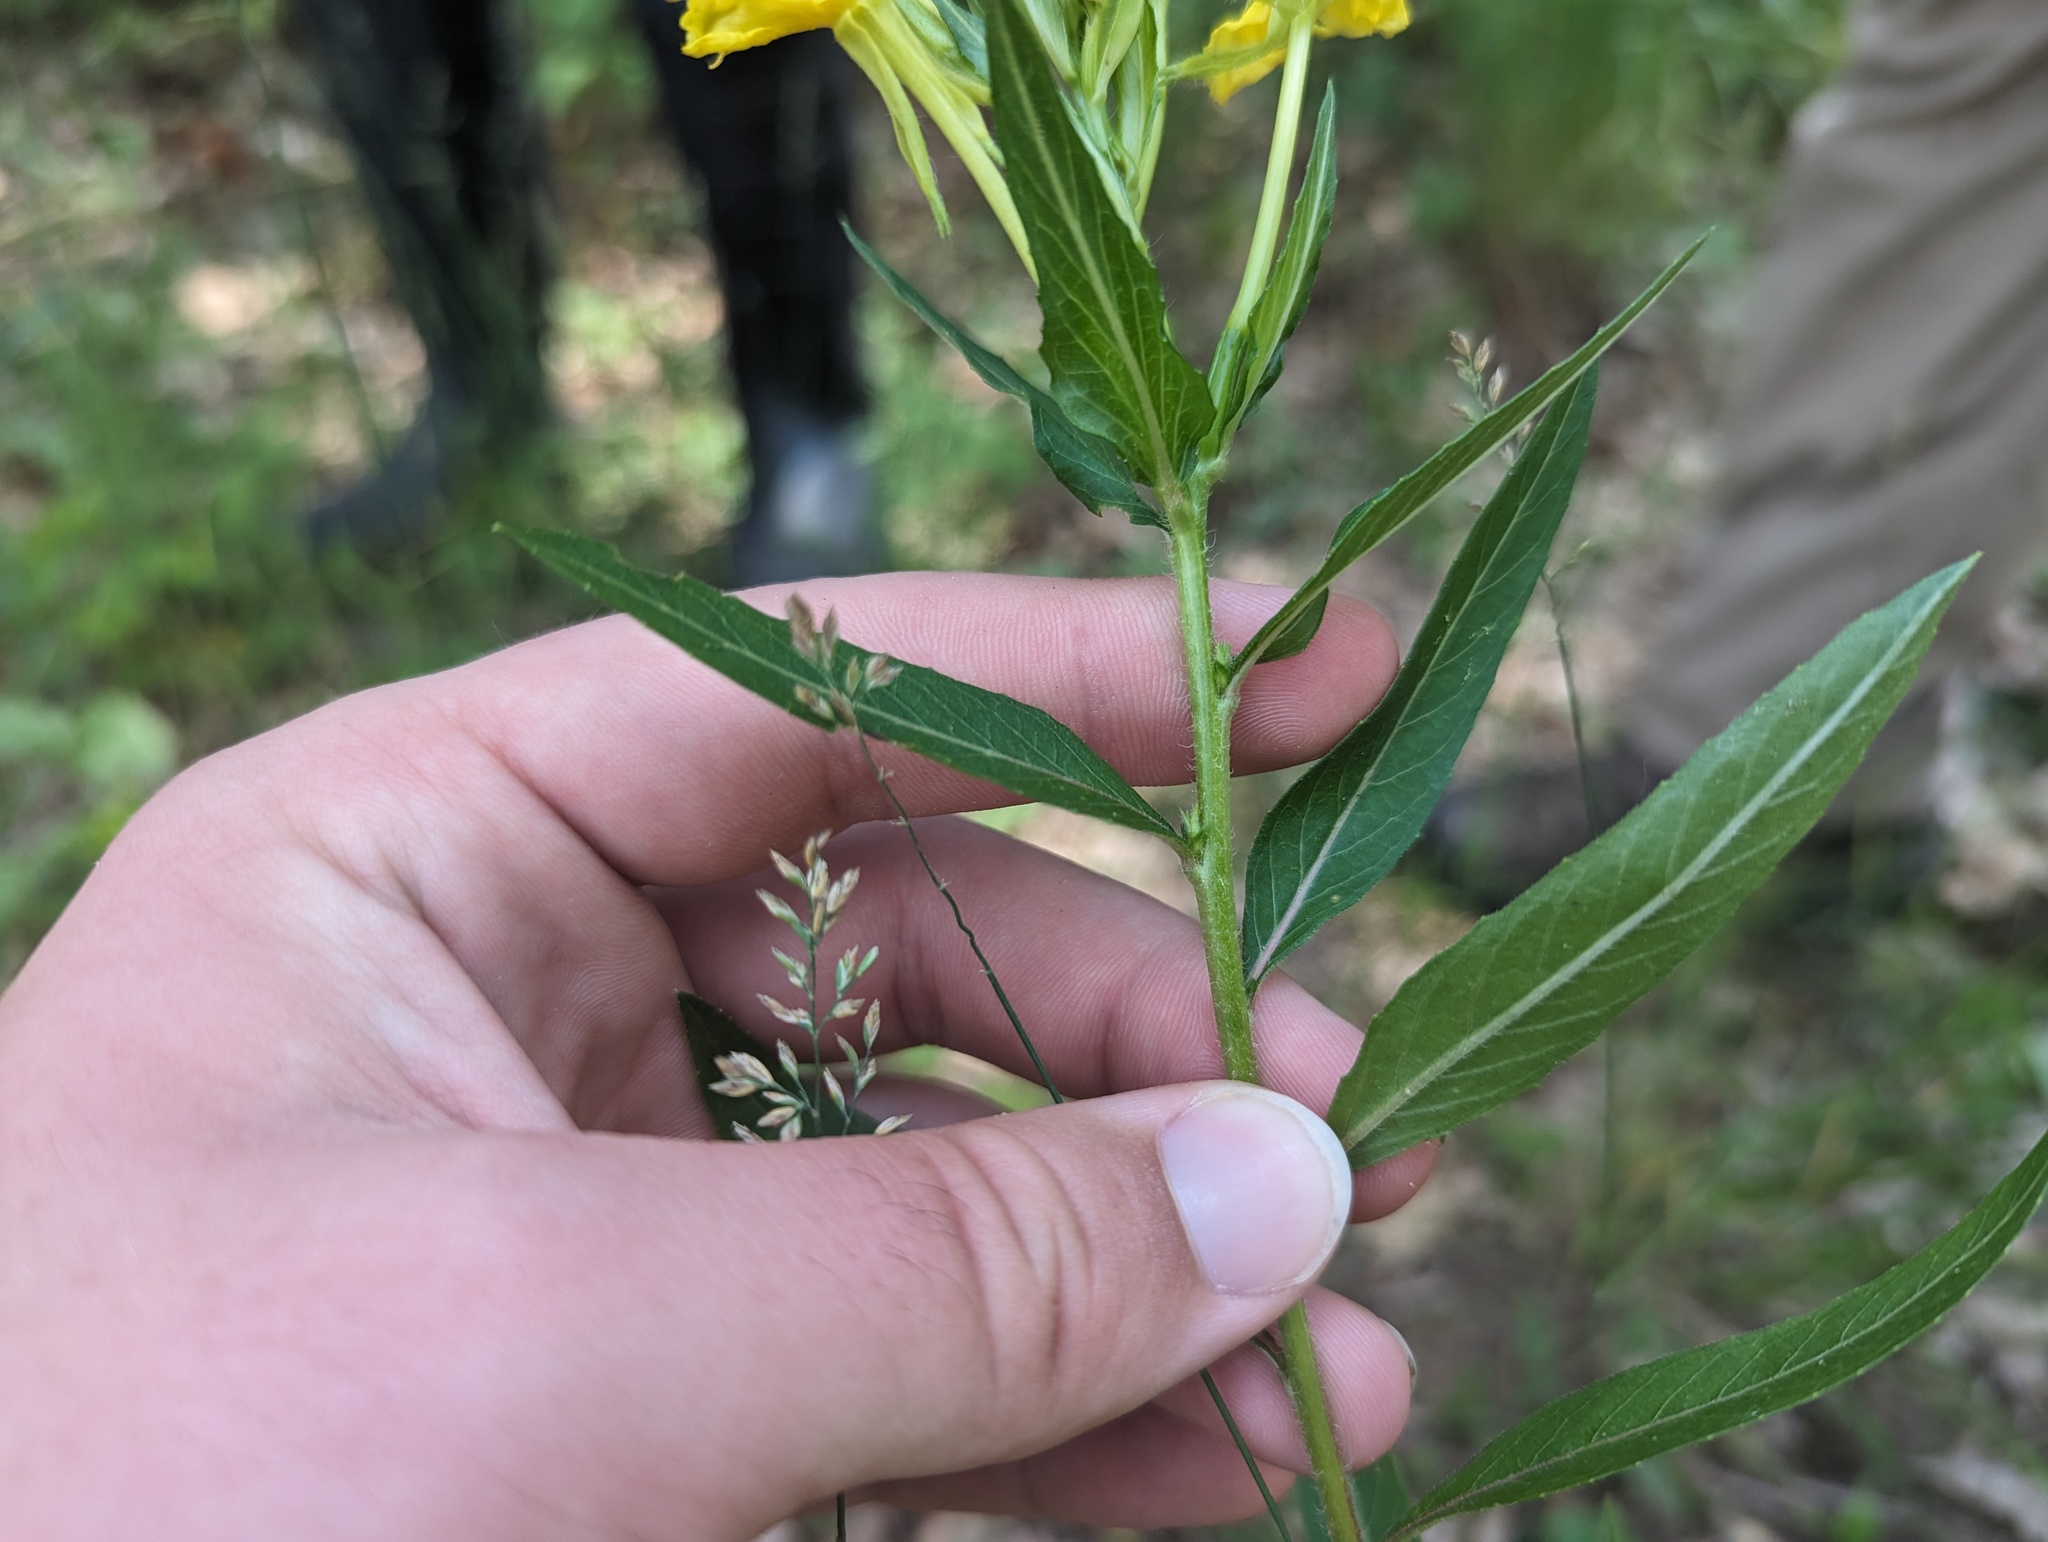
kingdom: Plantae
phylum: Tracheophyta
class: Magnoliopsida
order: Myrtales
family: Onagraceae
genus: Oenothera
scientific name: Oenothera nutans
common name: Nodding evening-primrose
